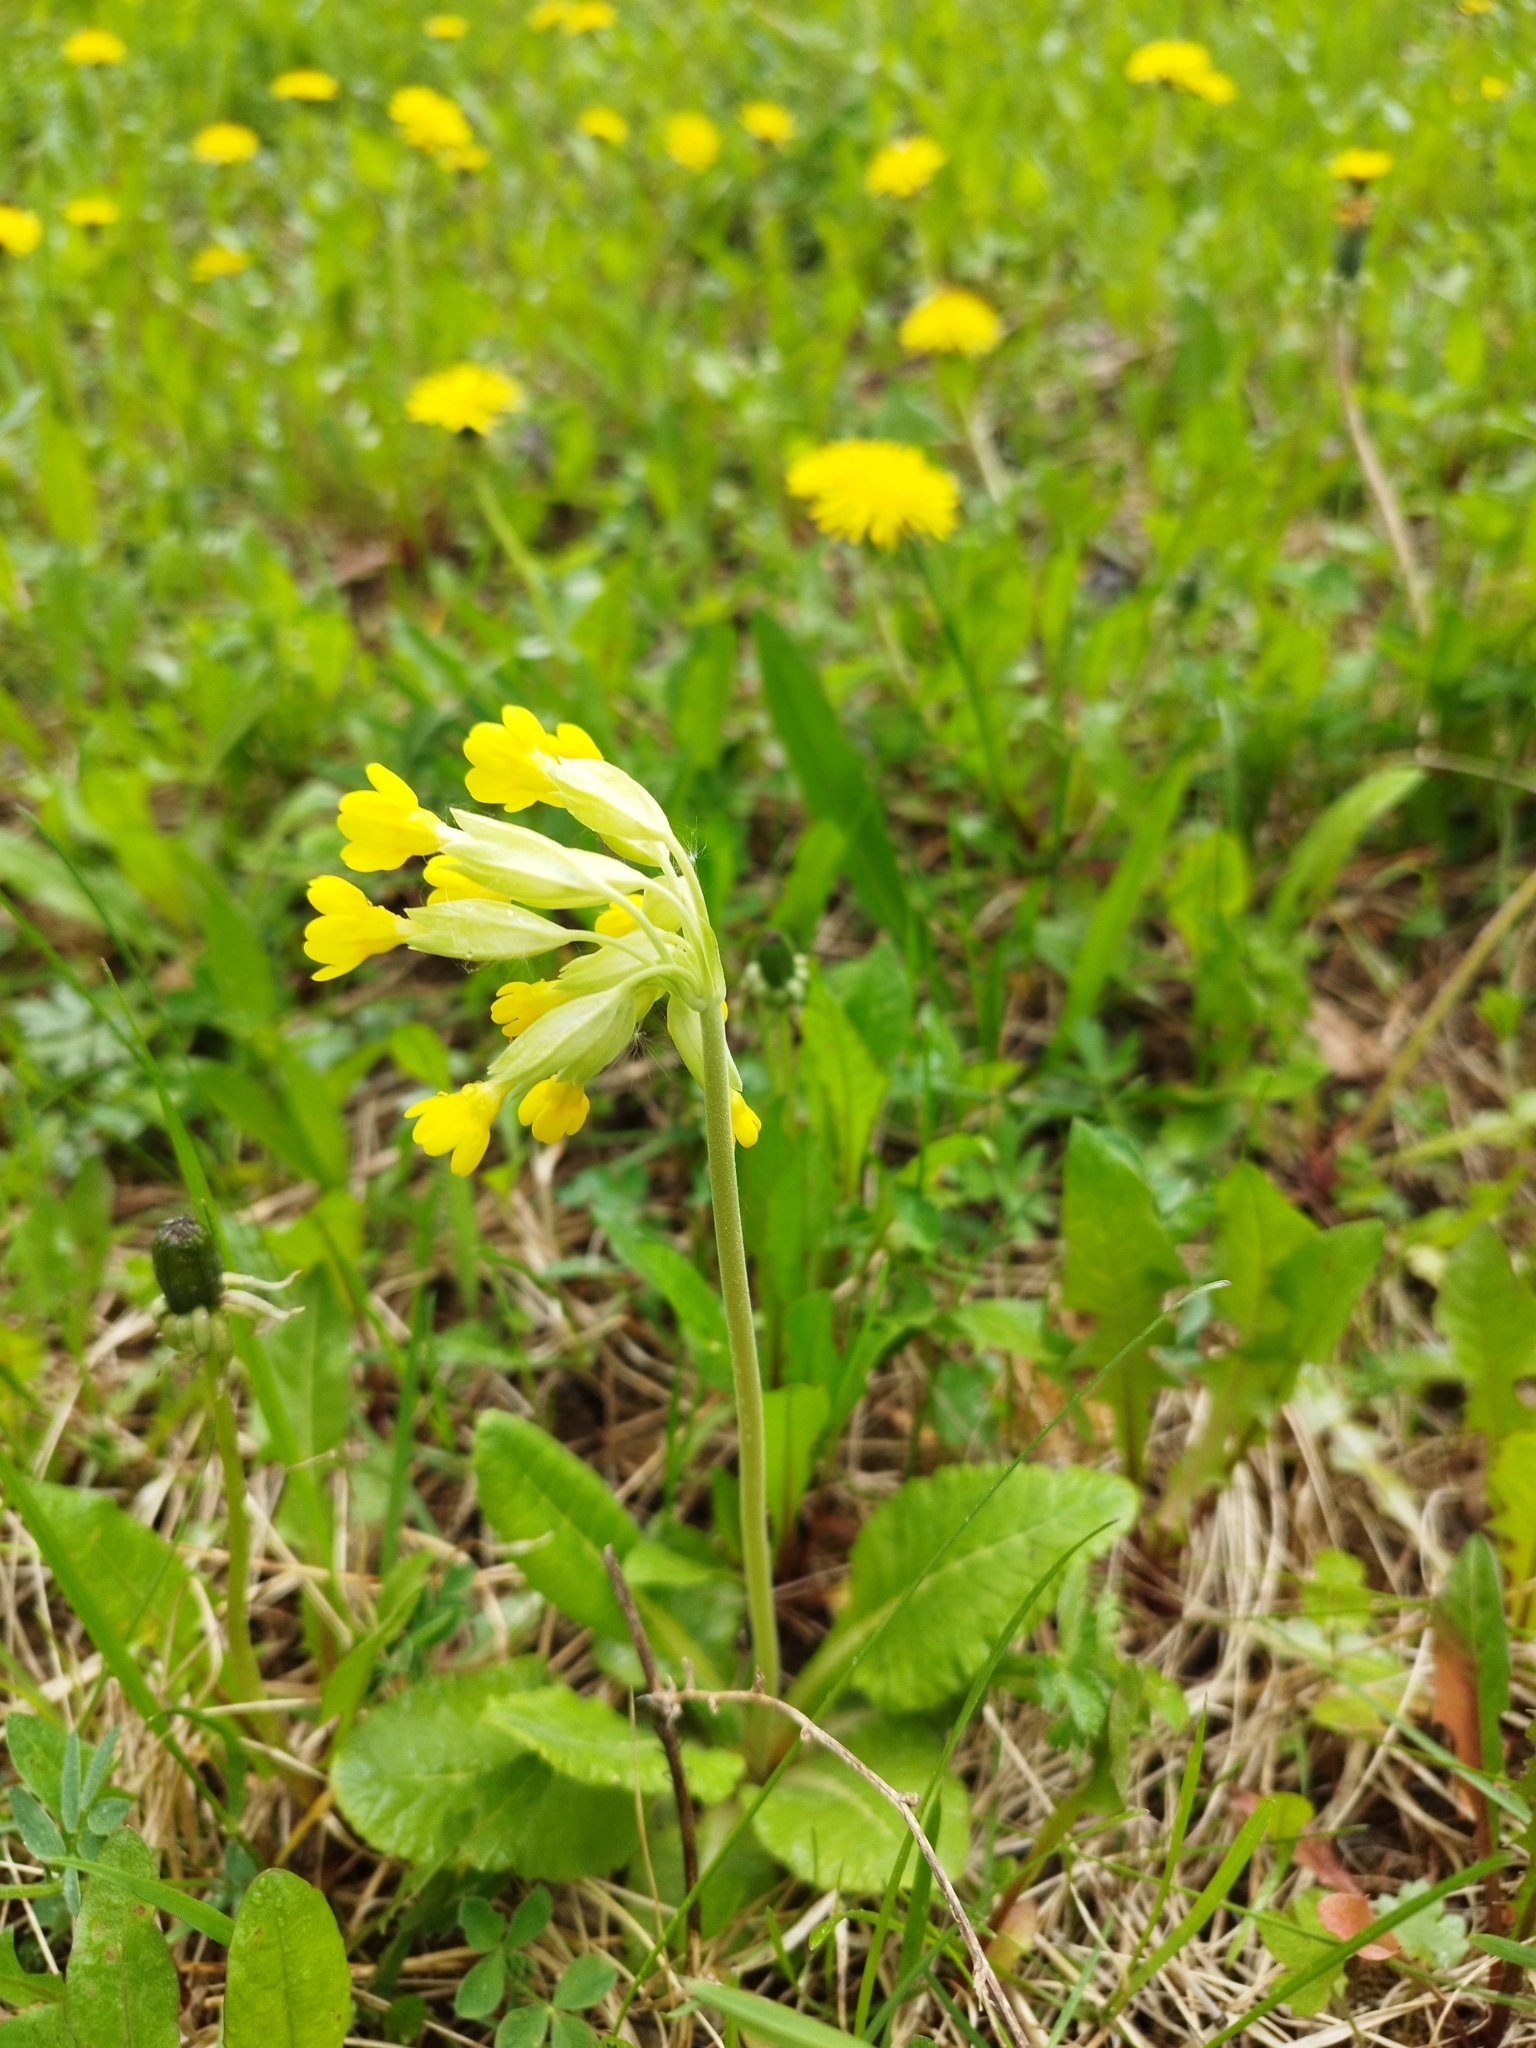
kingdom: Plantae
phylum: Tracheophyta
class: Magnoliopsida
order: Ericales
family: Primulaceae
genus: Primula
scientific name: Primula veris
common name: Cowslip
